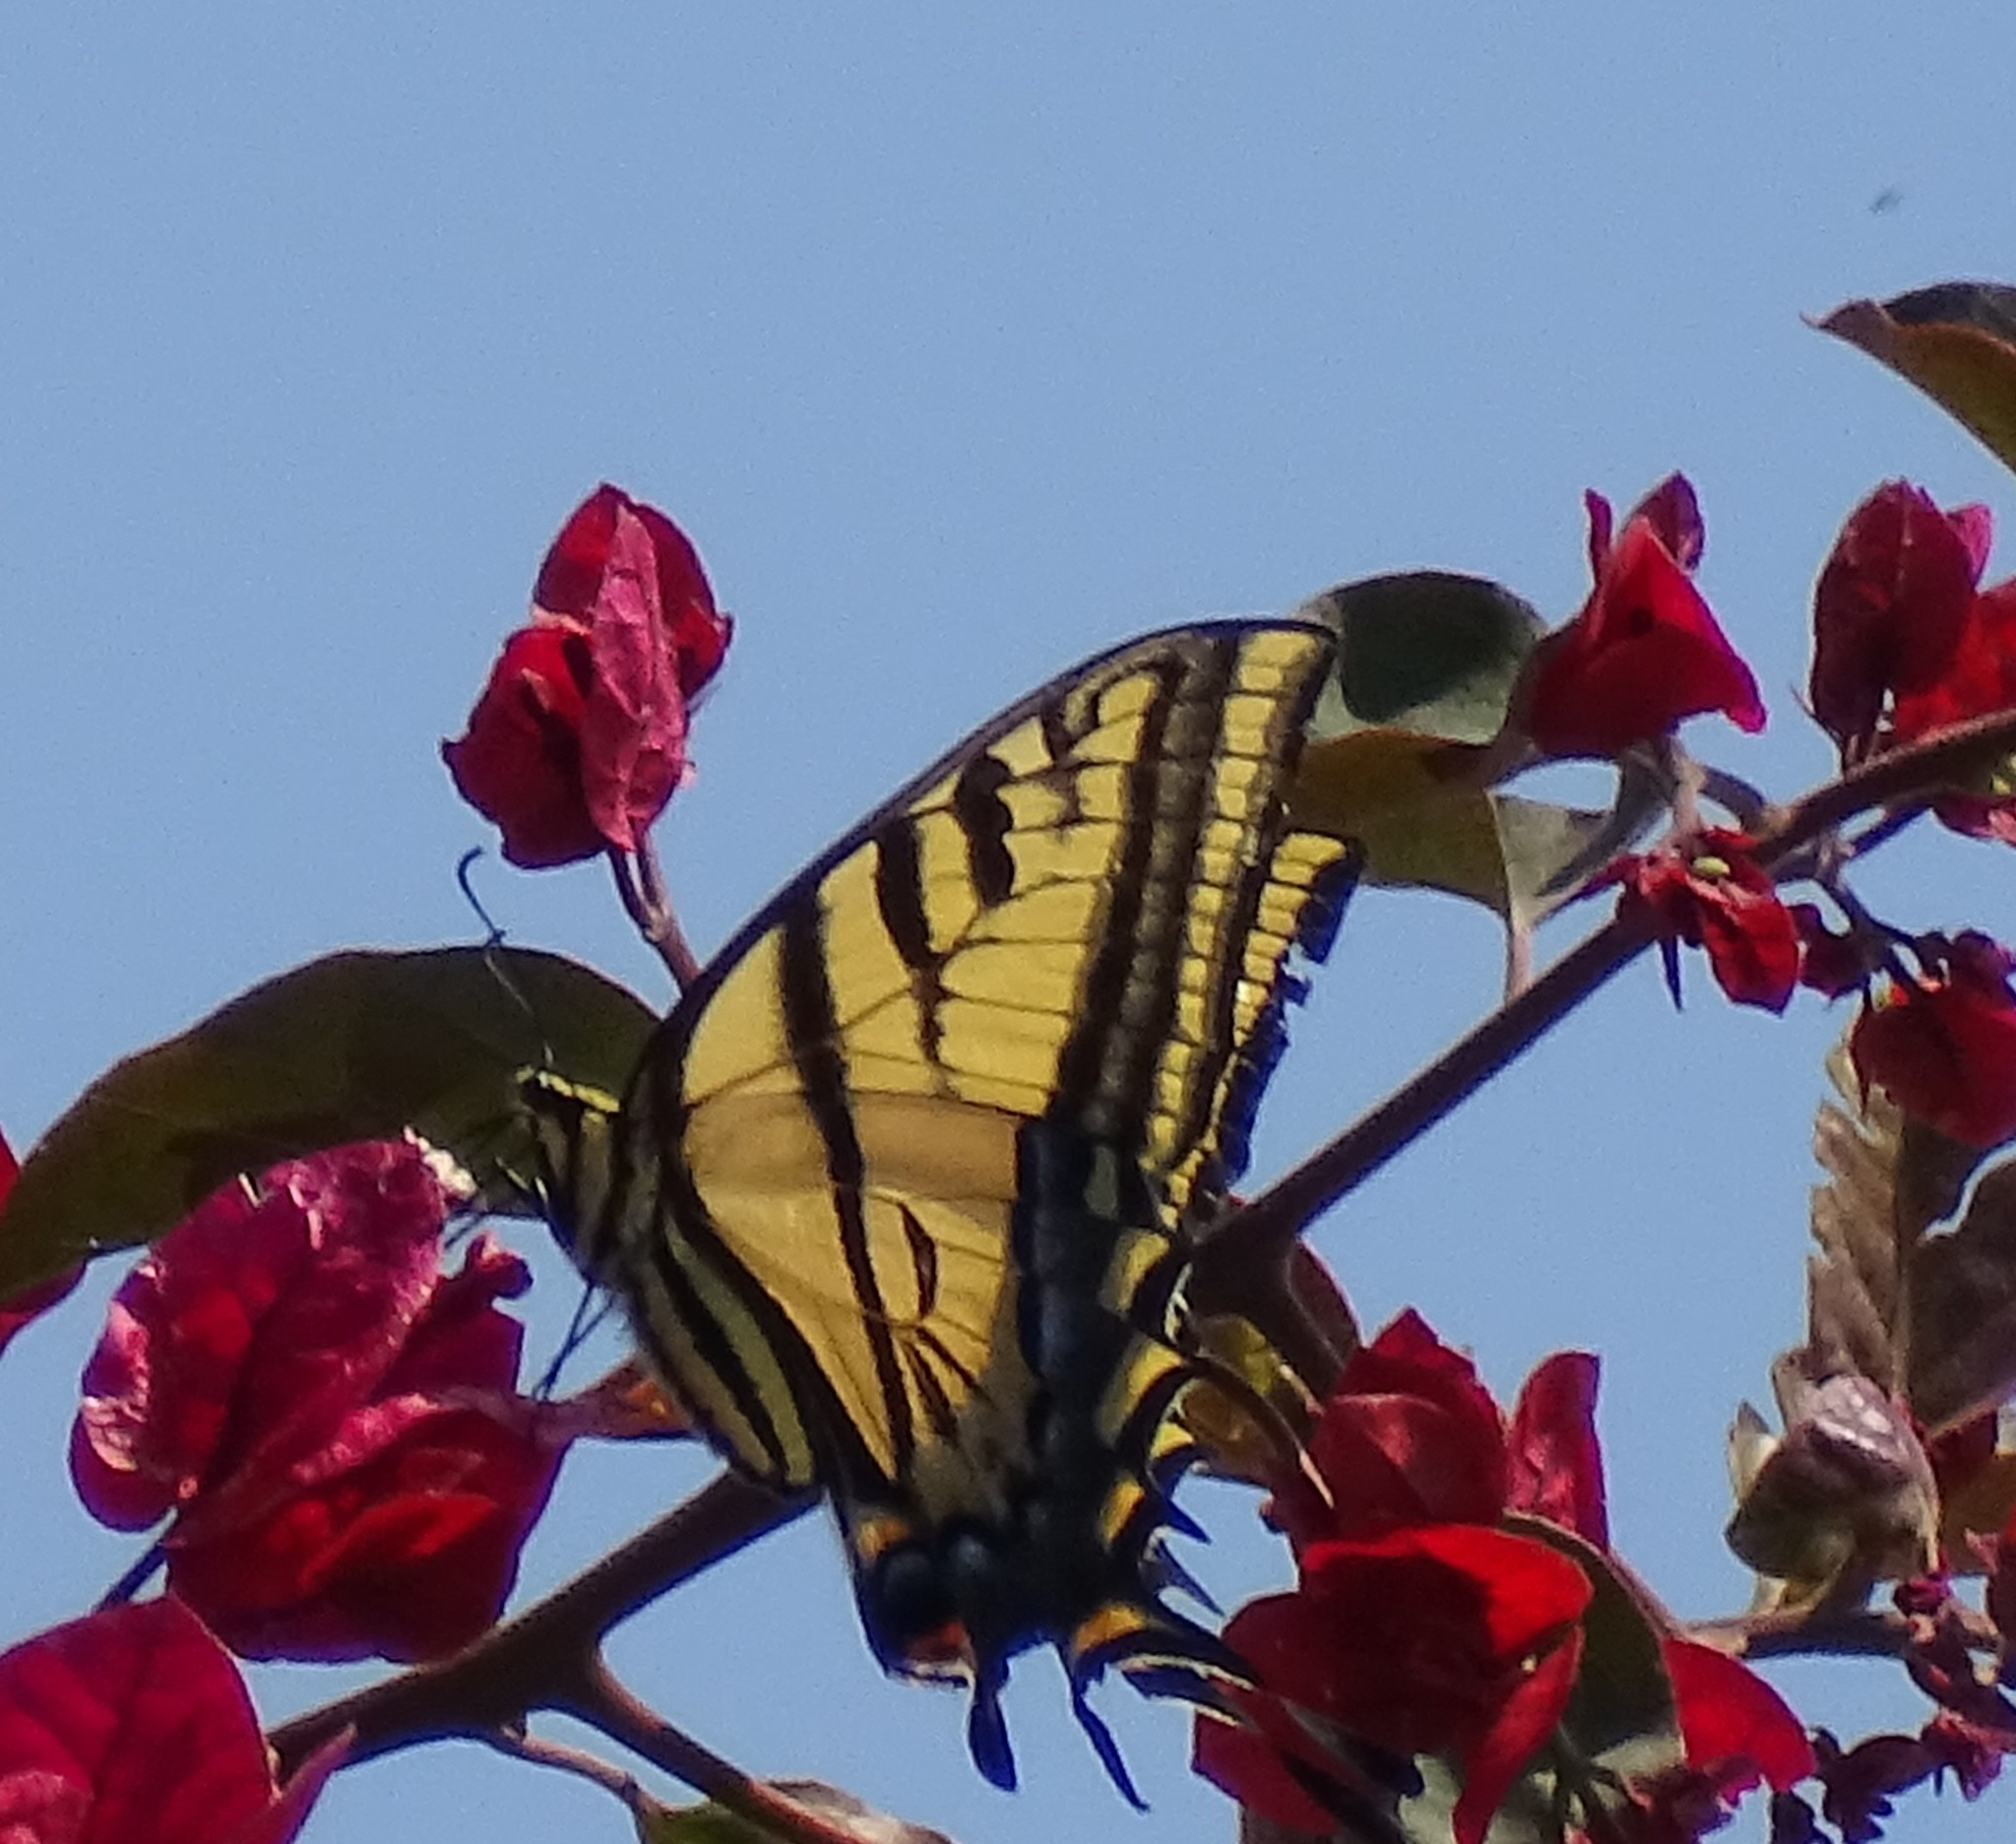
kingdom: Animalia
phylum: Arthropoda
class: Insecta
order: Lepidoptera
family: Papilionidae
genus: Papilio
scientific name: Papilio multicaudata
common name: Two-tailed tiger swallowtail
